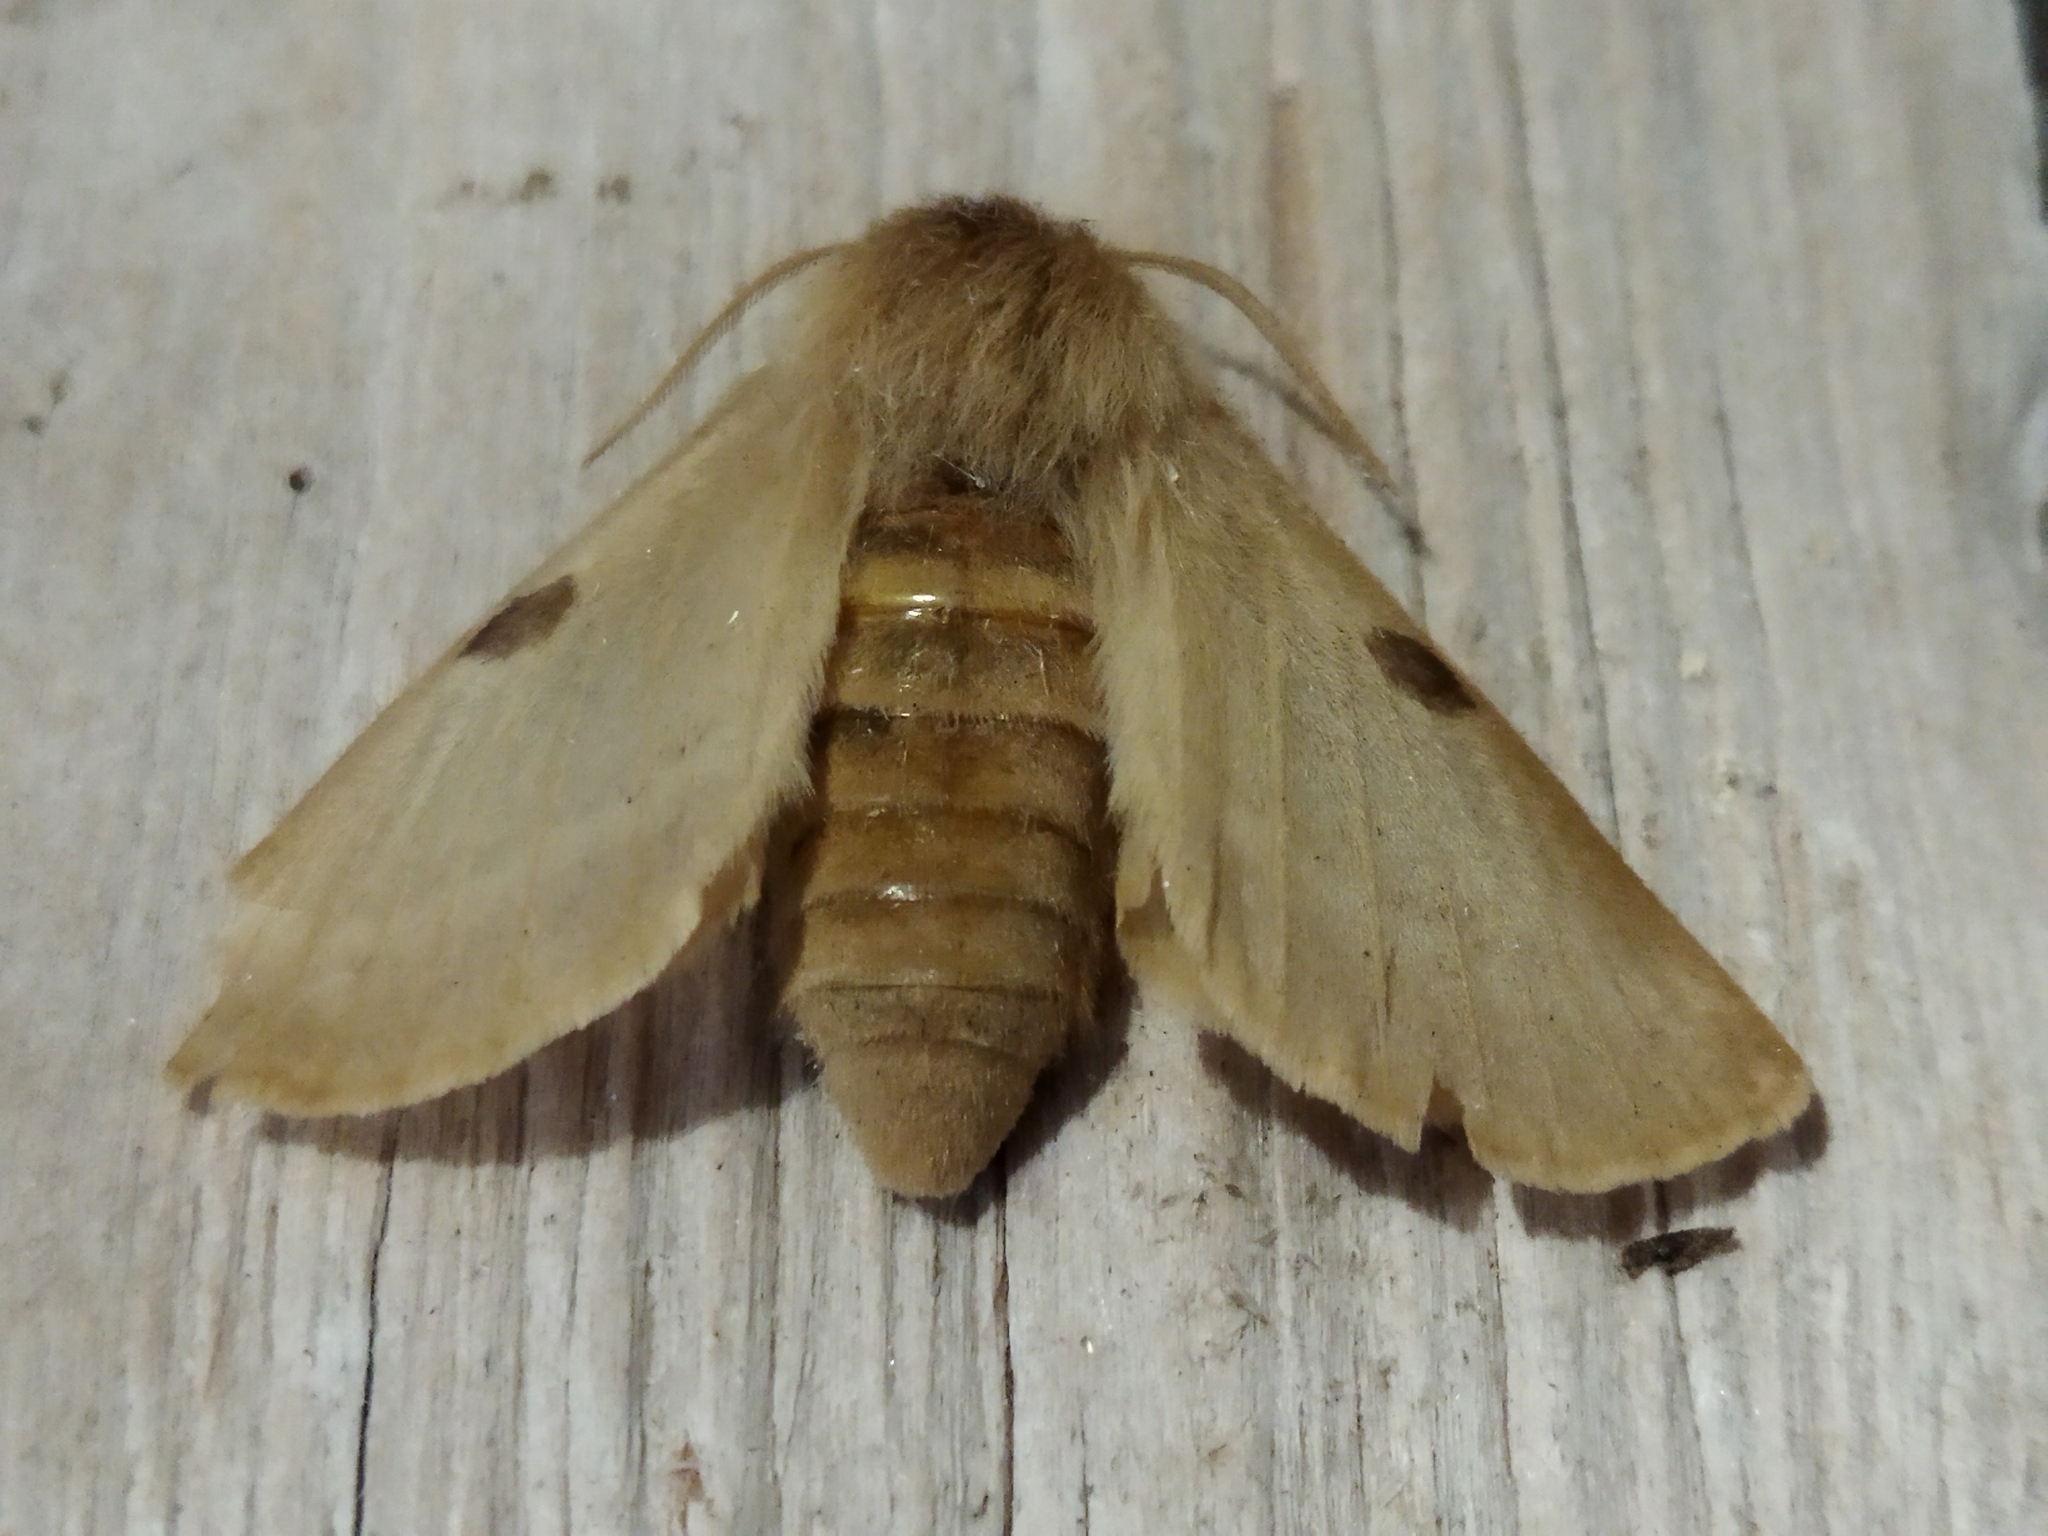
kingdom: Animalia
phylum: Arthropoda
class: Insecta
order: Lepidoptera
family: Brahmaeidae
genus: Lemonia
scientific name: Lemonia balcanica
